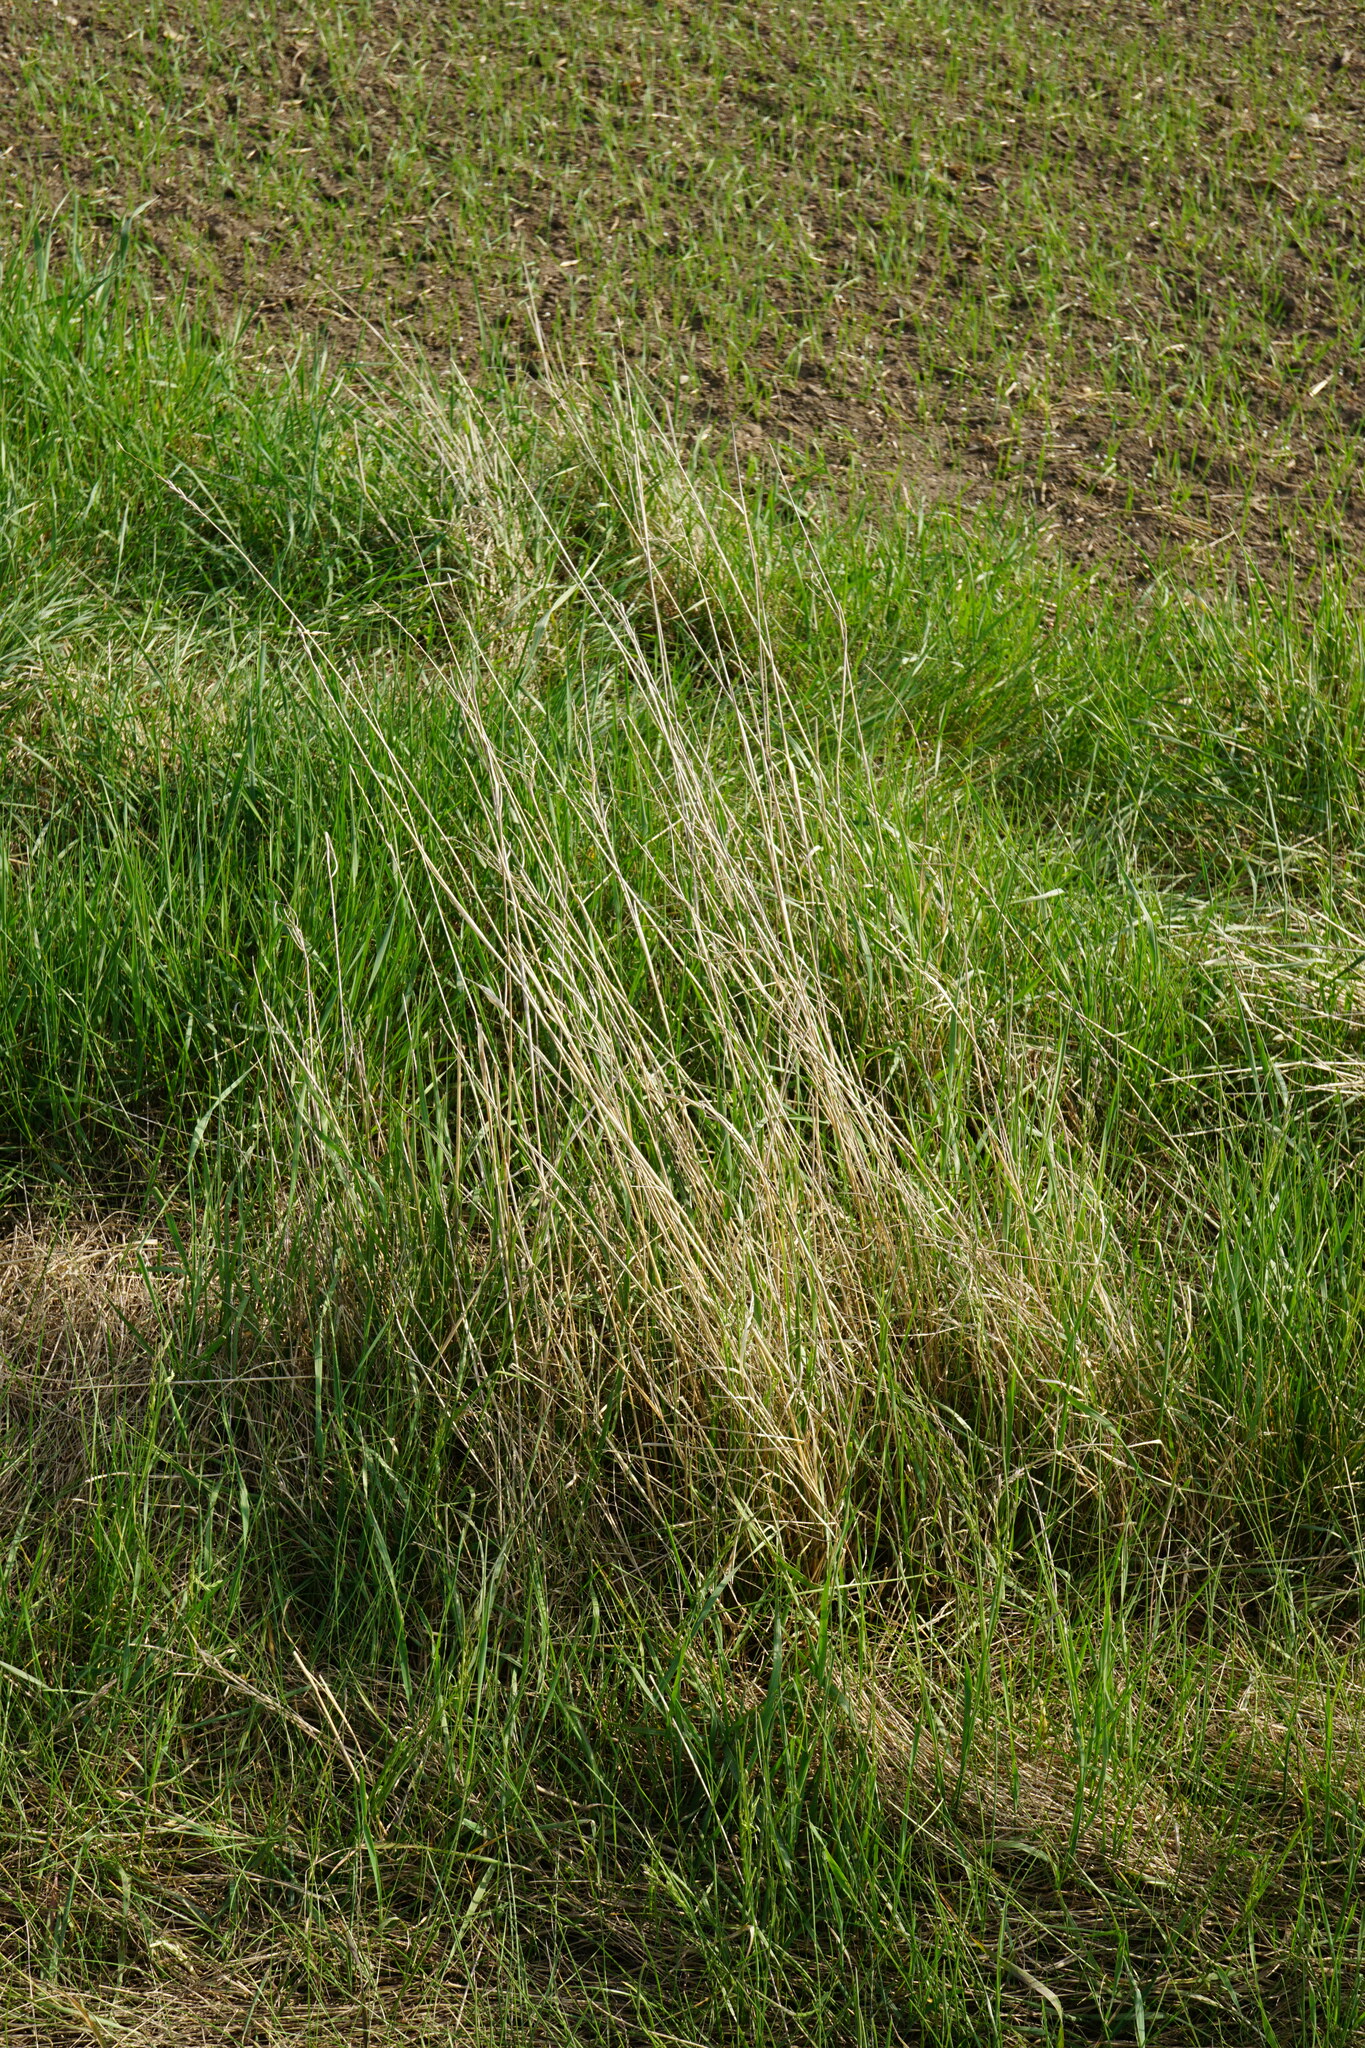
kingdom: Plantae
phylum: Tracheophyta
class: Liliopsida
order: Poales
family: Poaceae
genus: Elymus
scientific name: Elymus repens
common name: Quackgrass
